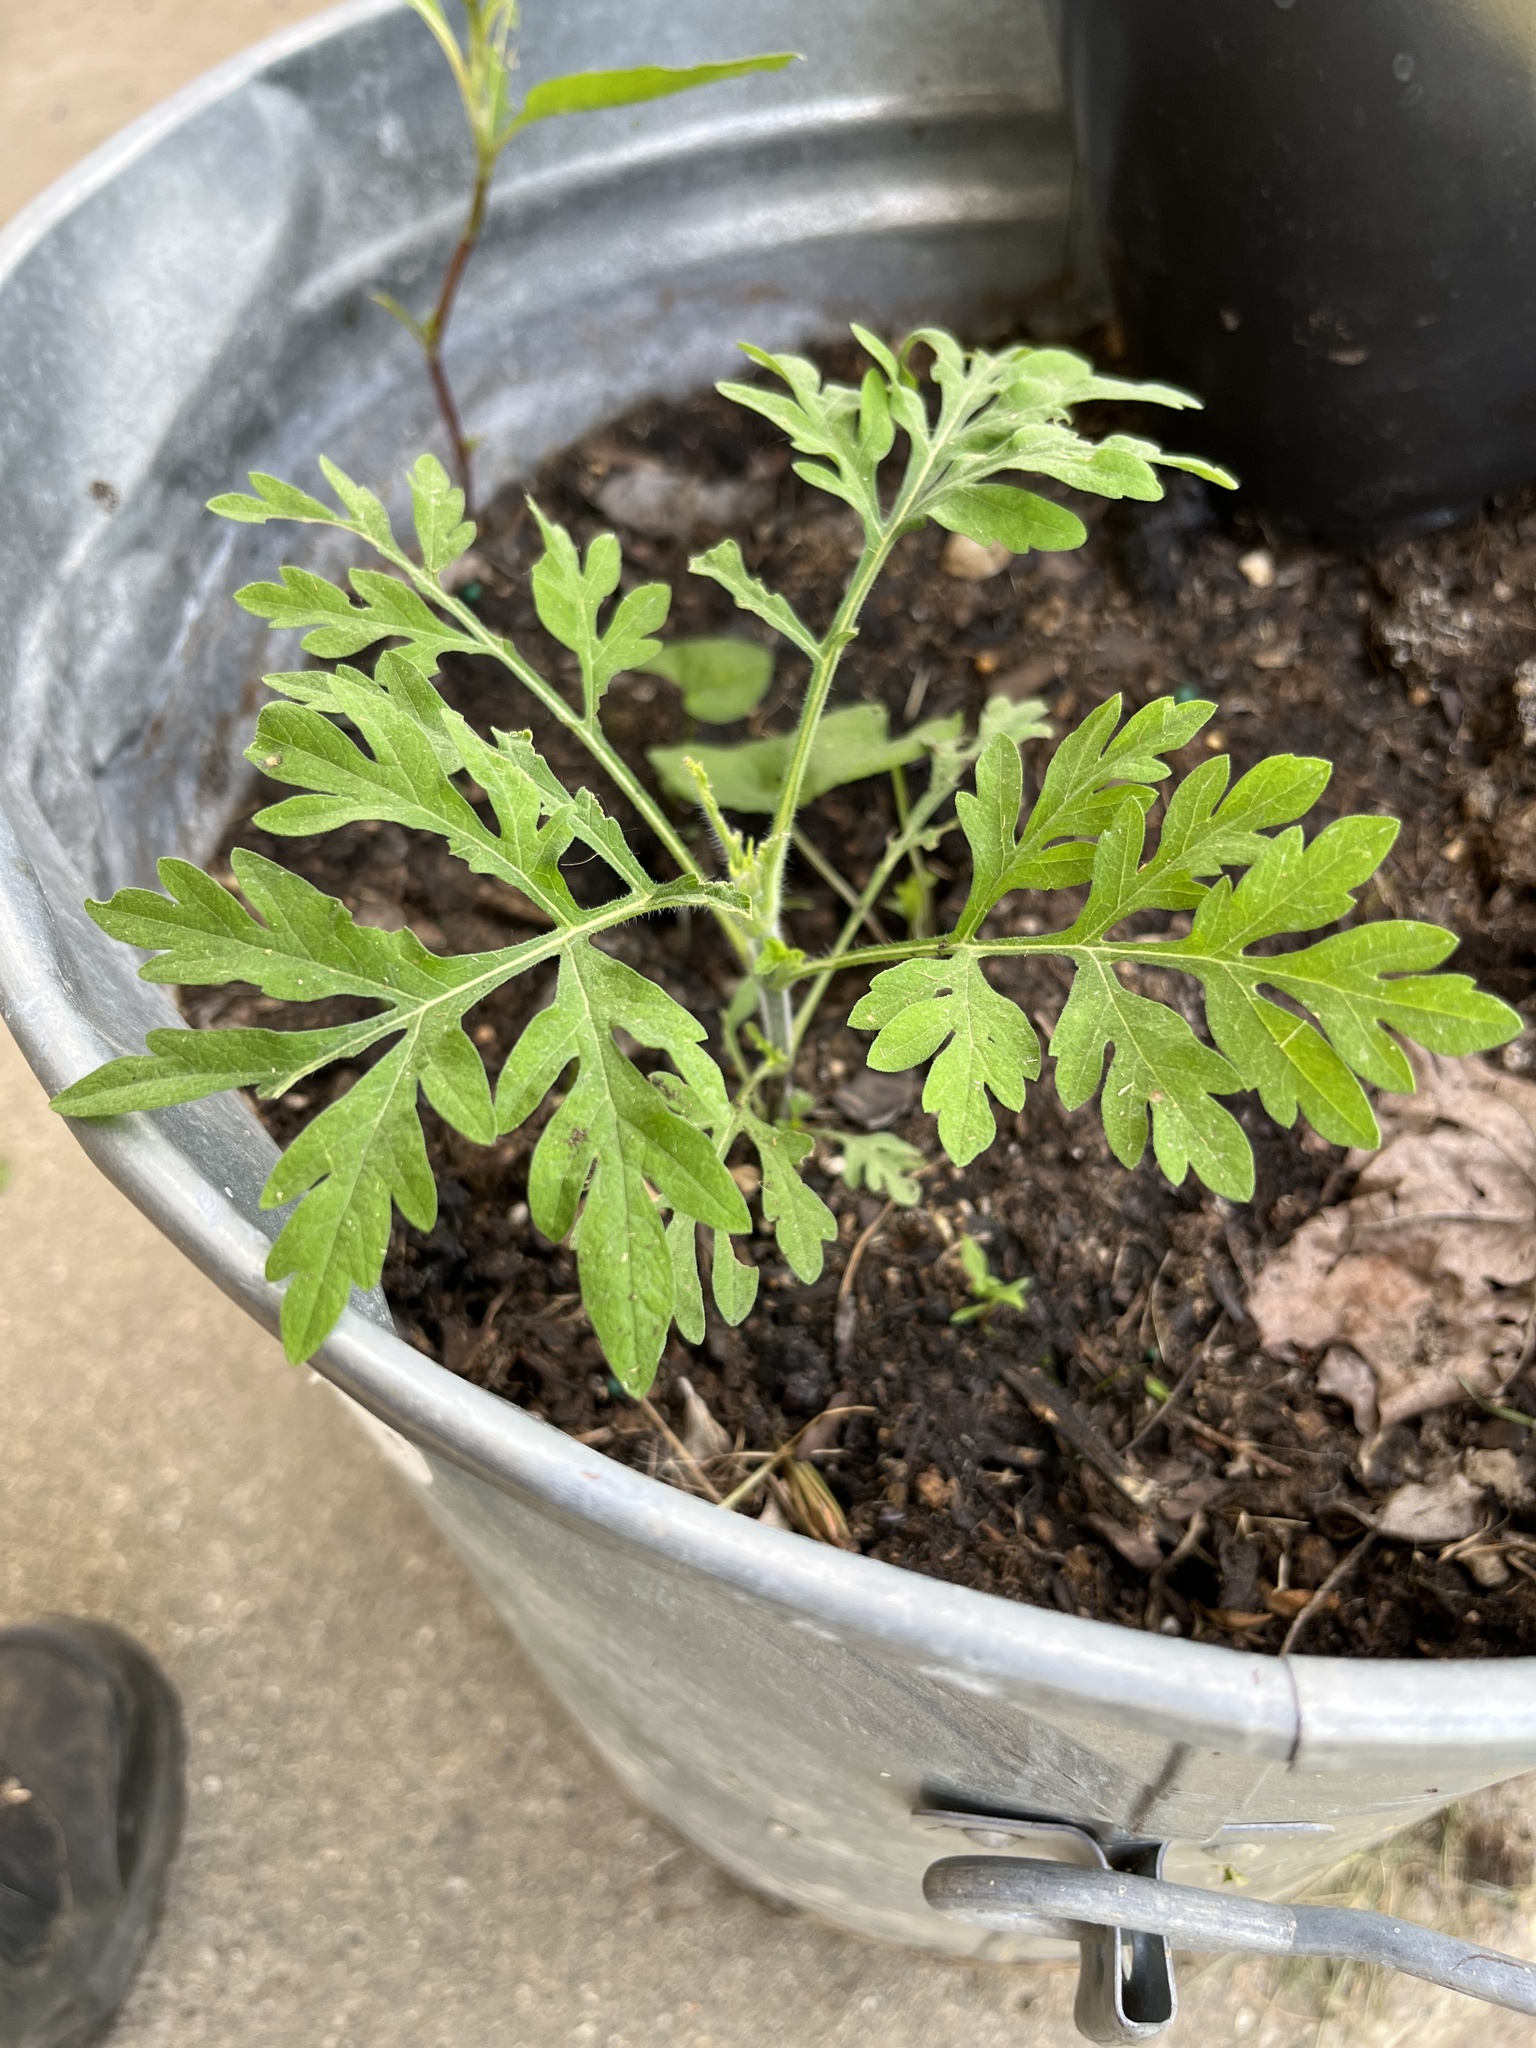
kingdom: Plantae
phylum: Tracheophyta
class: Magnoliopsida
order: Asterales
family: Asteraceae
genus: Ambrosia
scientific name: Ambrosia artemisiifolia
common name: Annual ragweed
